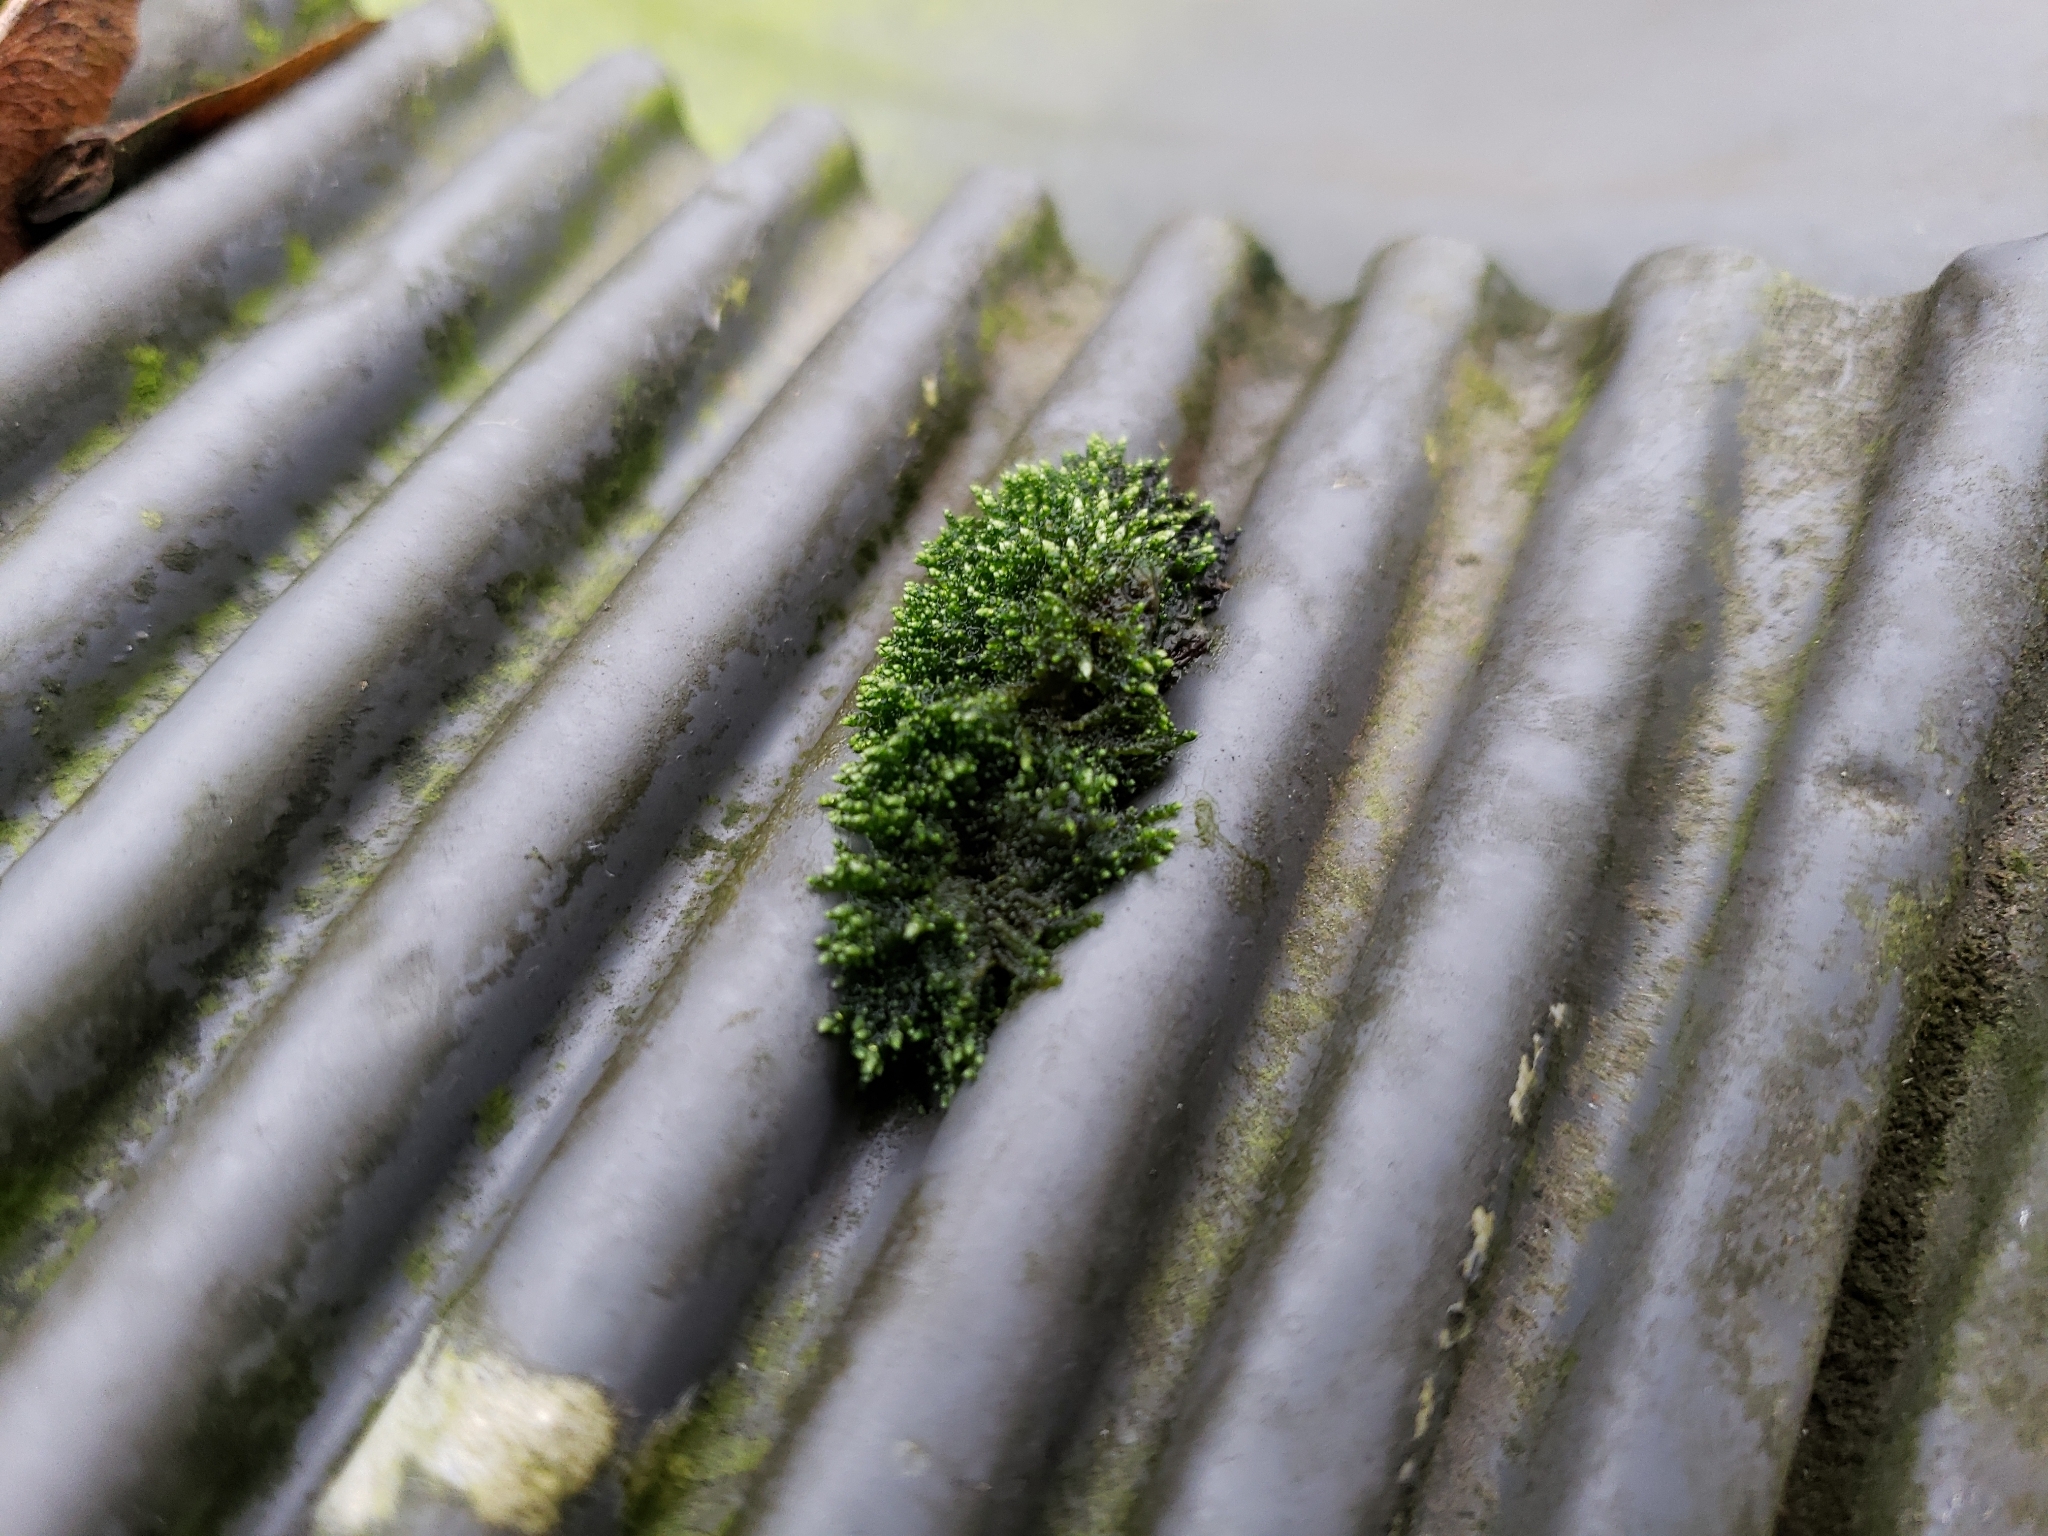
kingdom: Plantae
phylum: Bryophyta
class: Bryopsida
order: Bryales
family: Bryaceae
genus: Bryum
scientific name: Bryum argenteum
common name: Silver-moss
